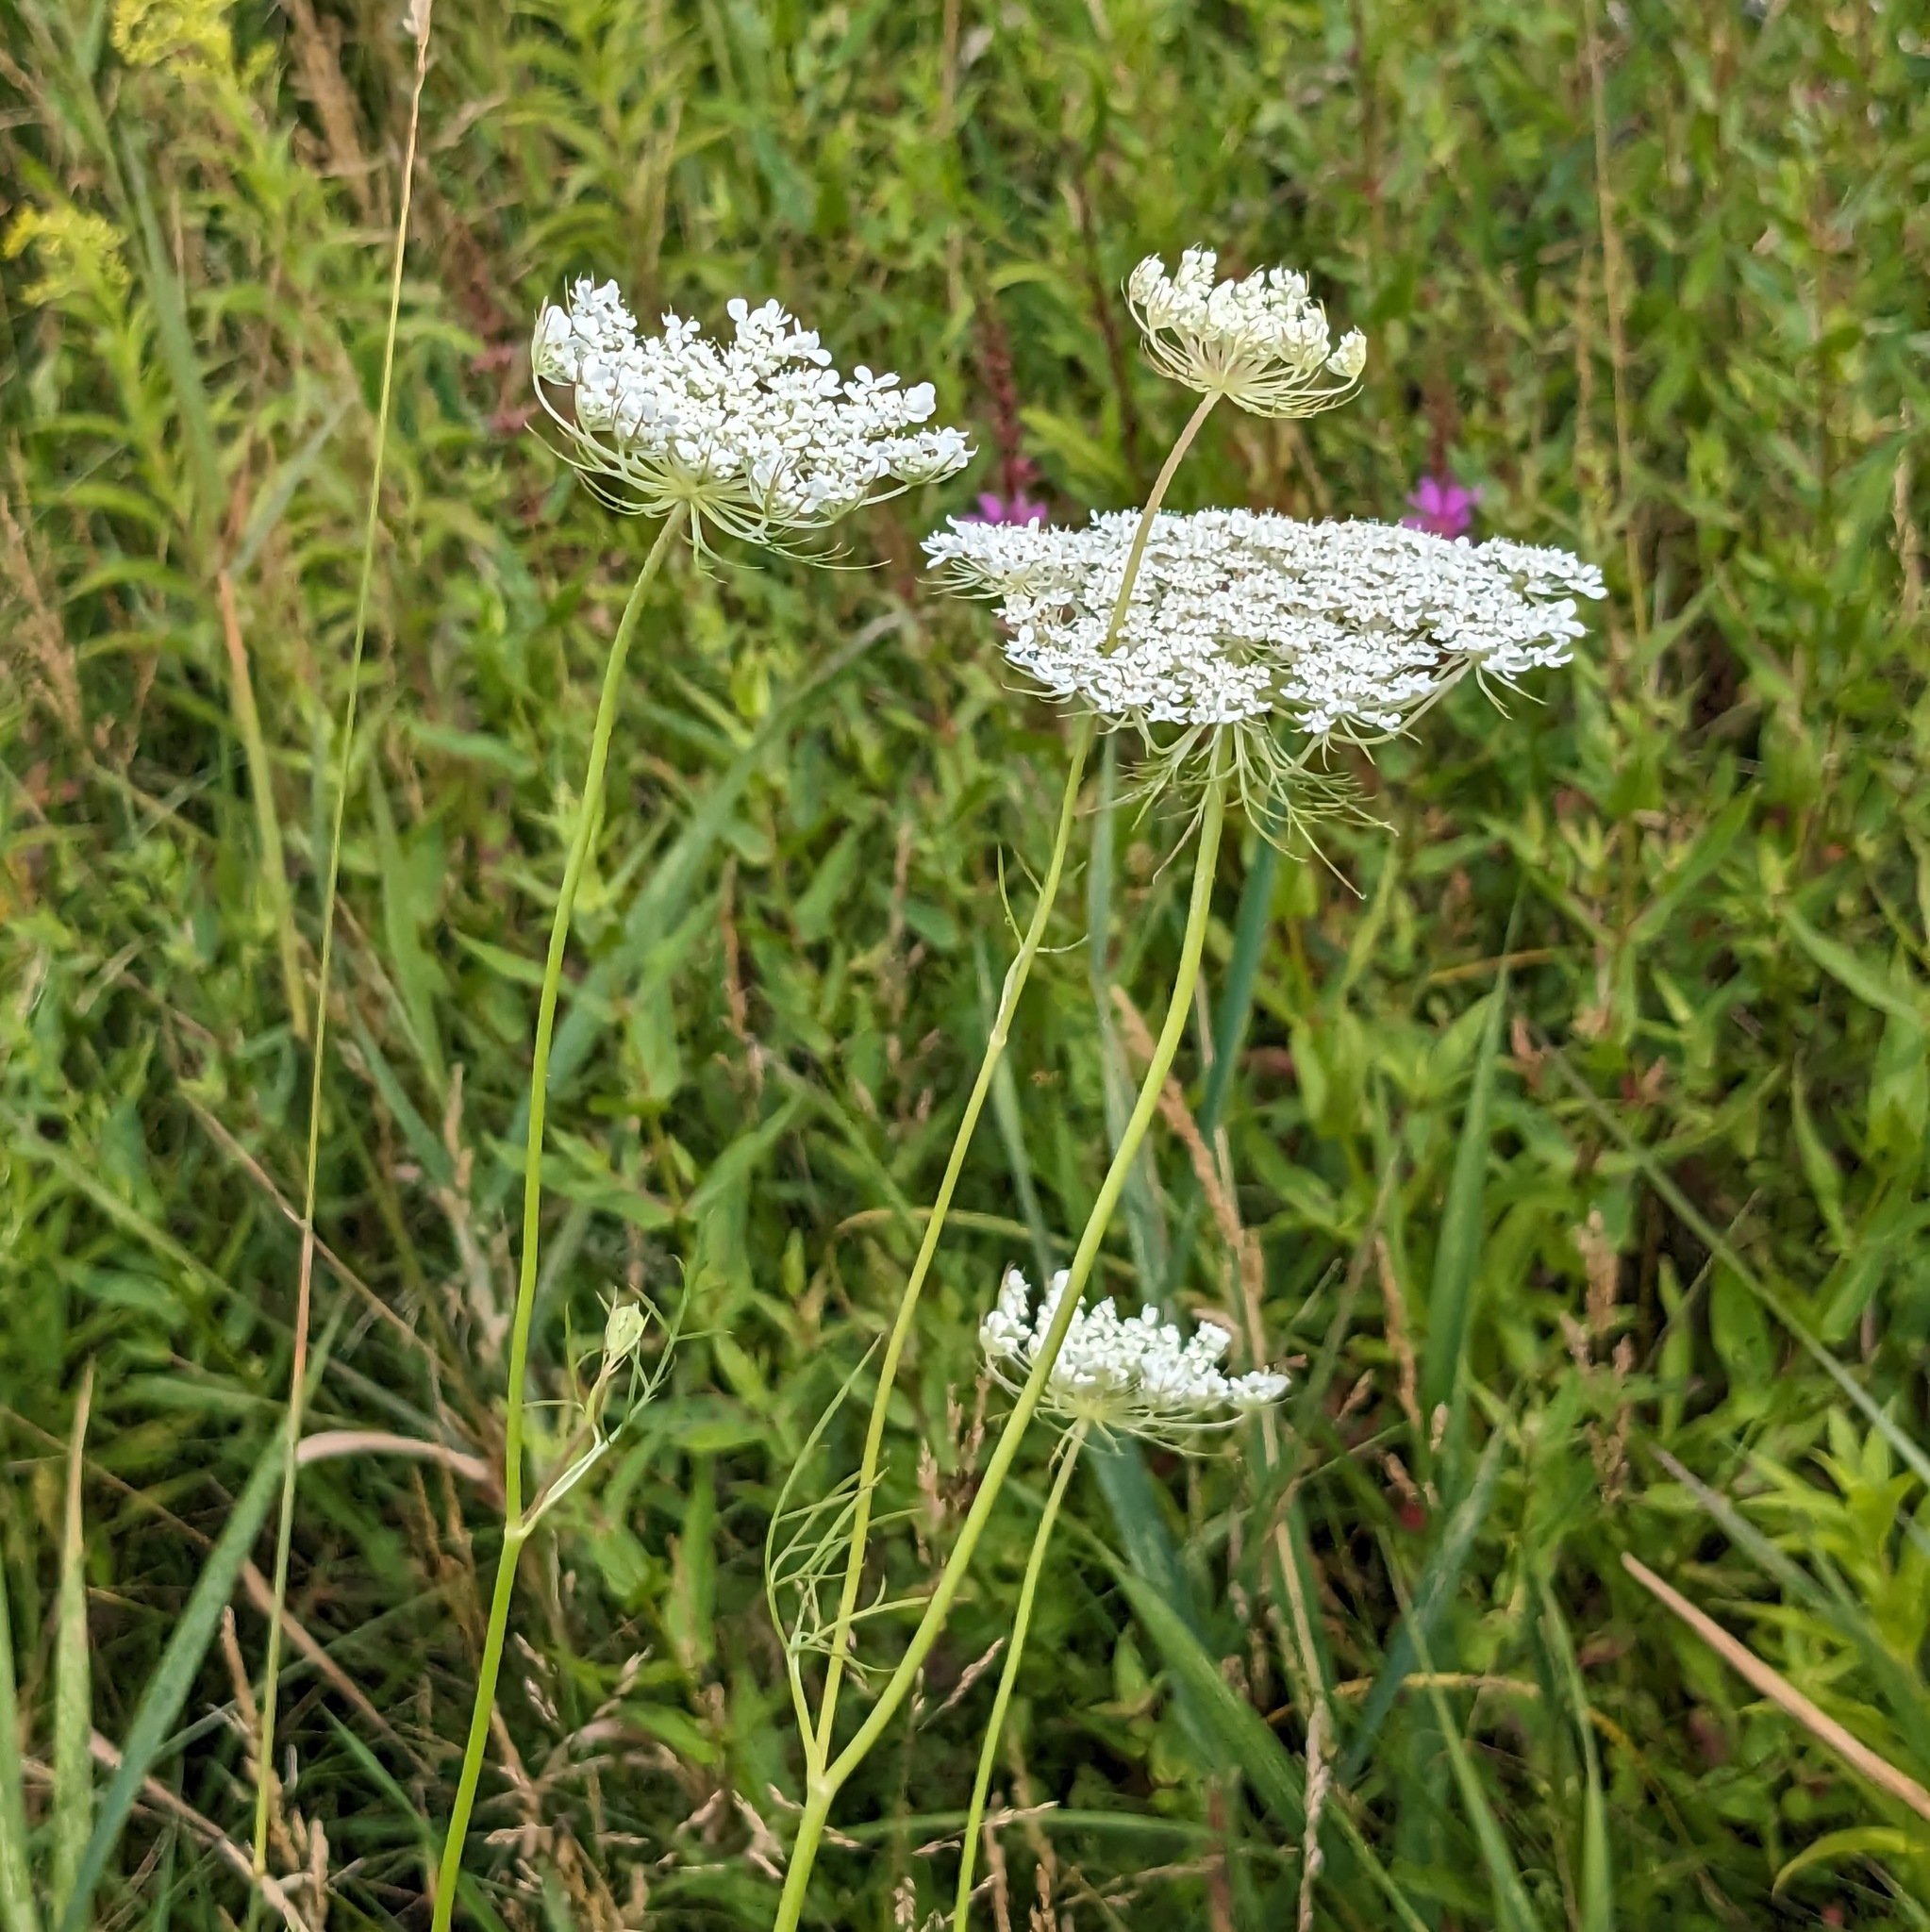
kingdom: Plantae
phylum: Tracheophyta
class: Magnoliopsida
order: Apiales
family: Apiaceae
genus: Daucus
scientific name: Daucus carota
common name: Wild carrot
